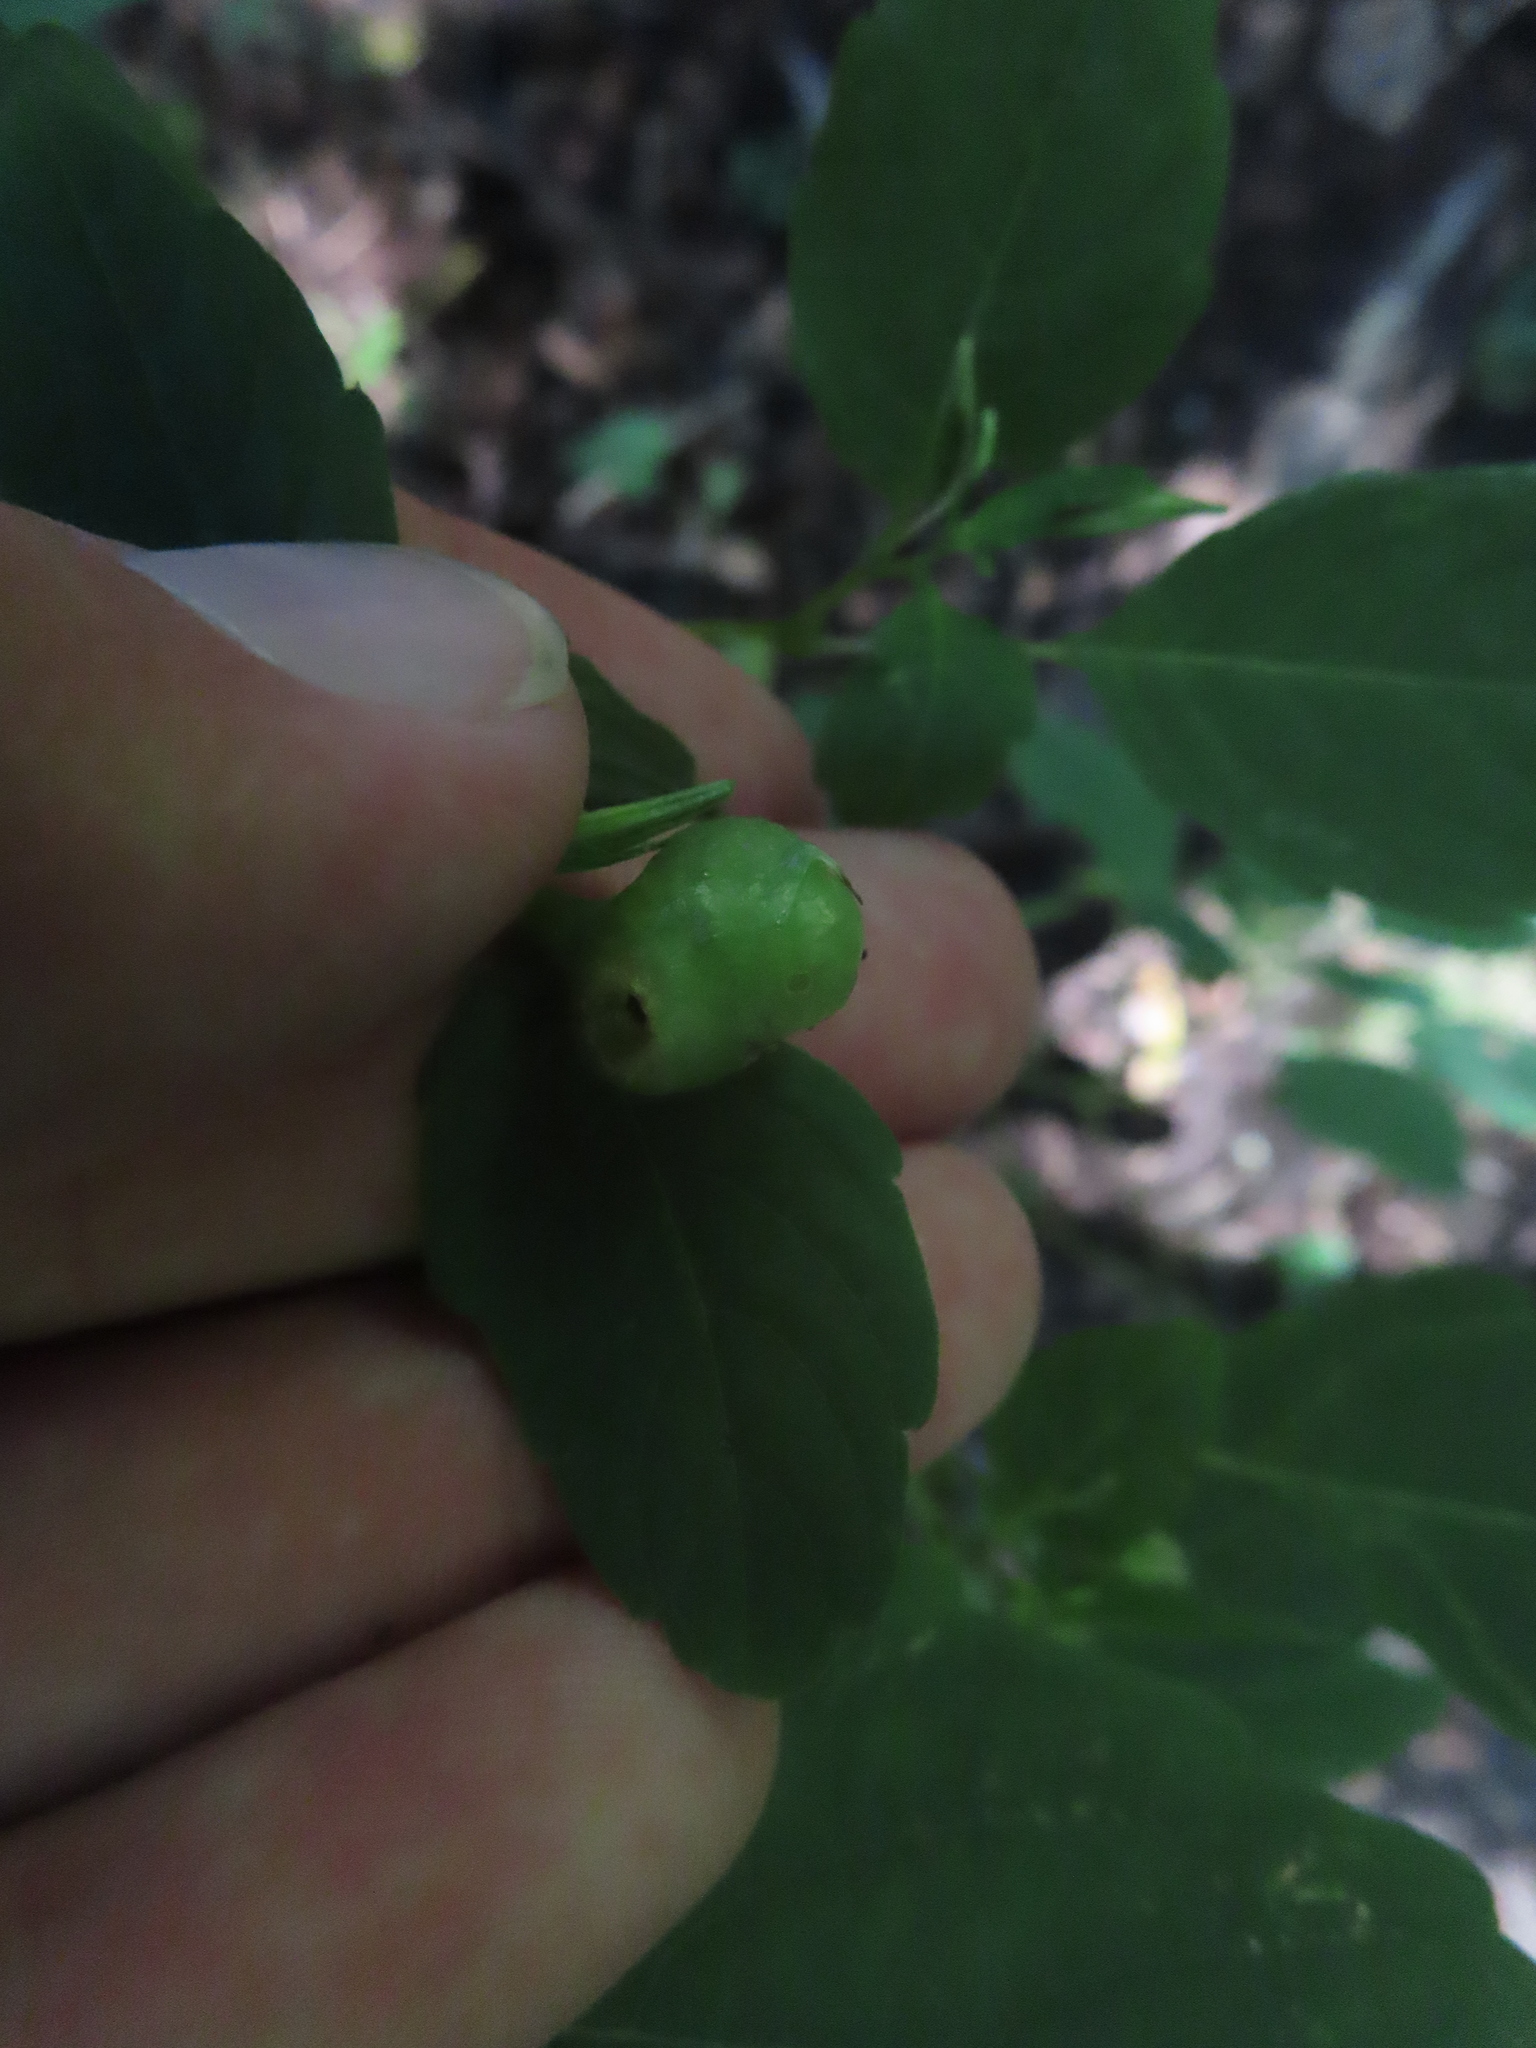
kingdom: Animalia
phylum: Arthropoda
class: Insecta
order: Diptera
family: Cecidomyiidae
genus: Schizomyia
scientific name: Schizomyia impatientis
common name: Jewelweed gall midge
